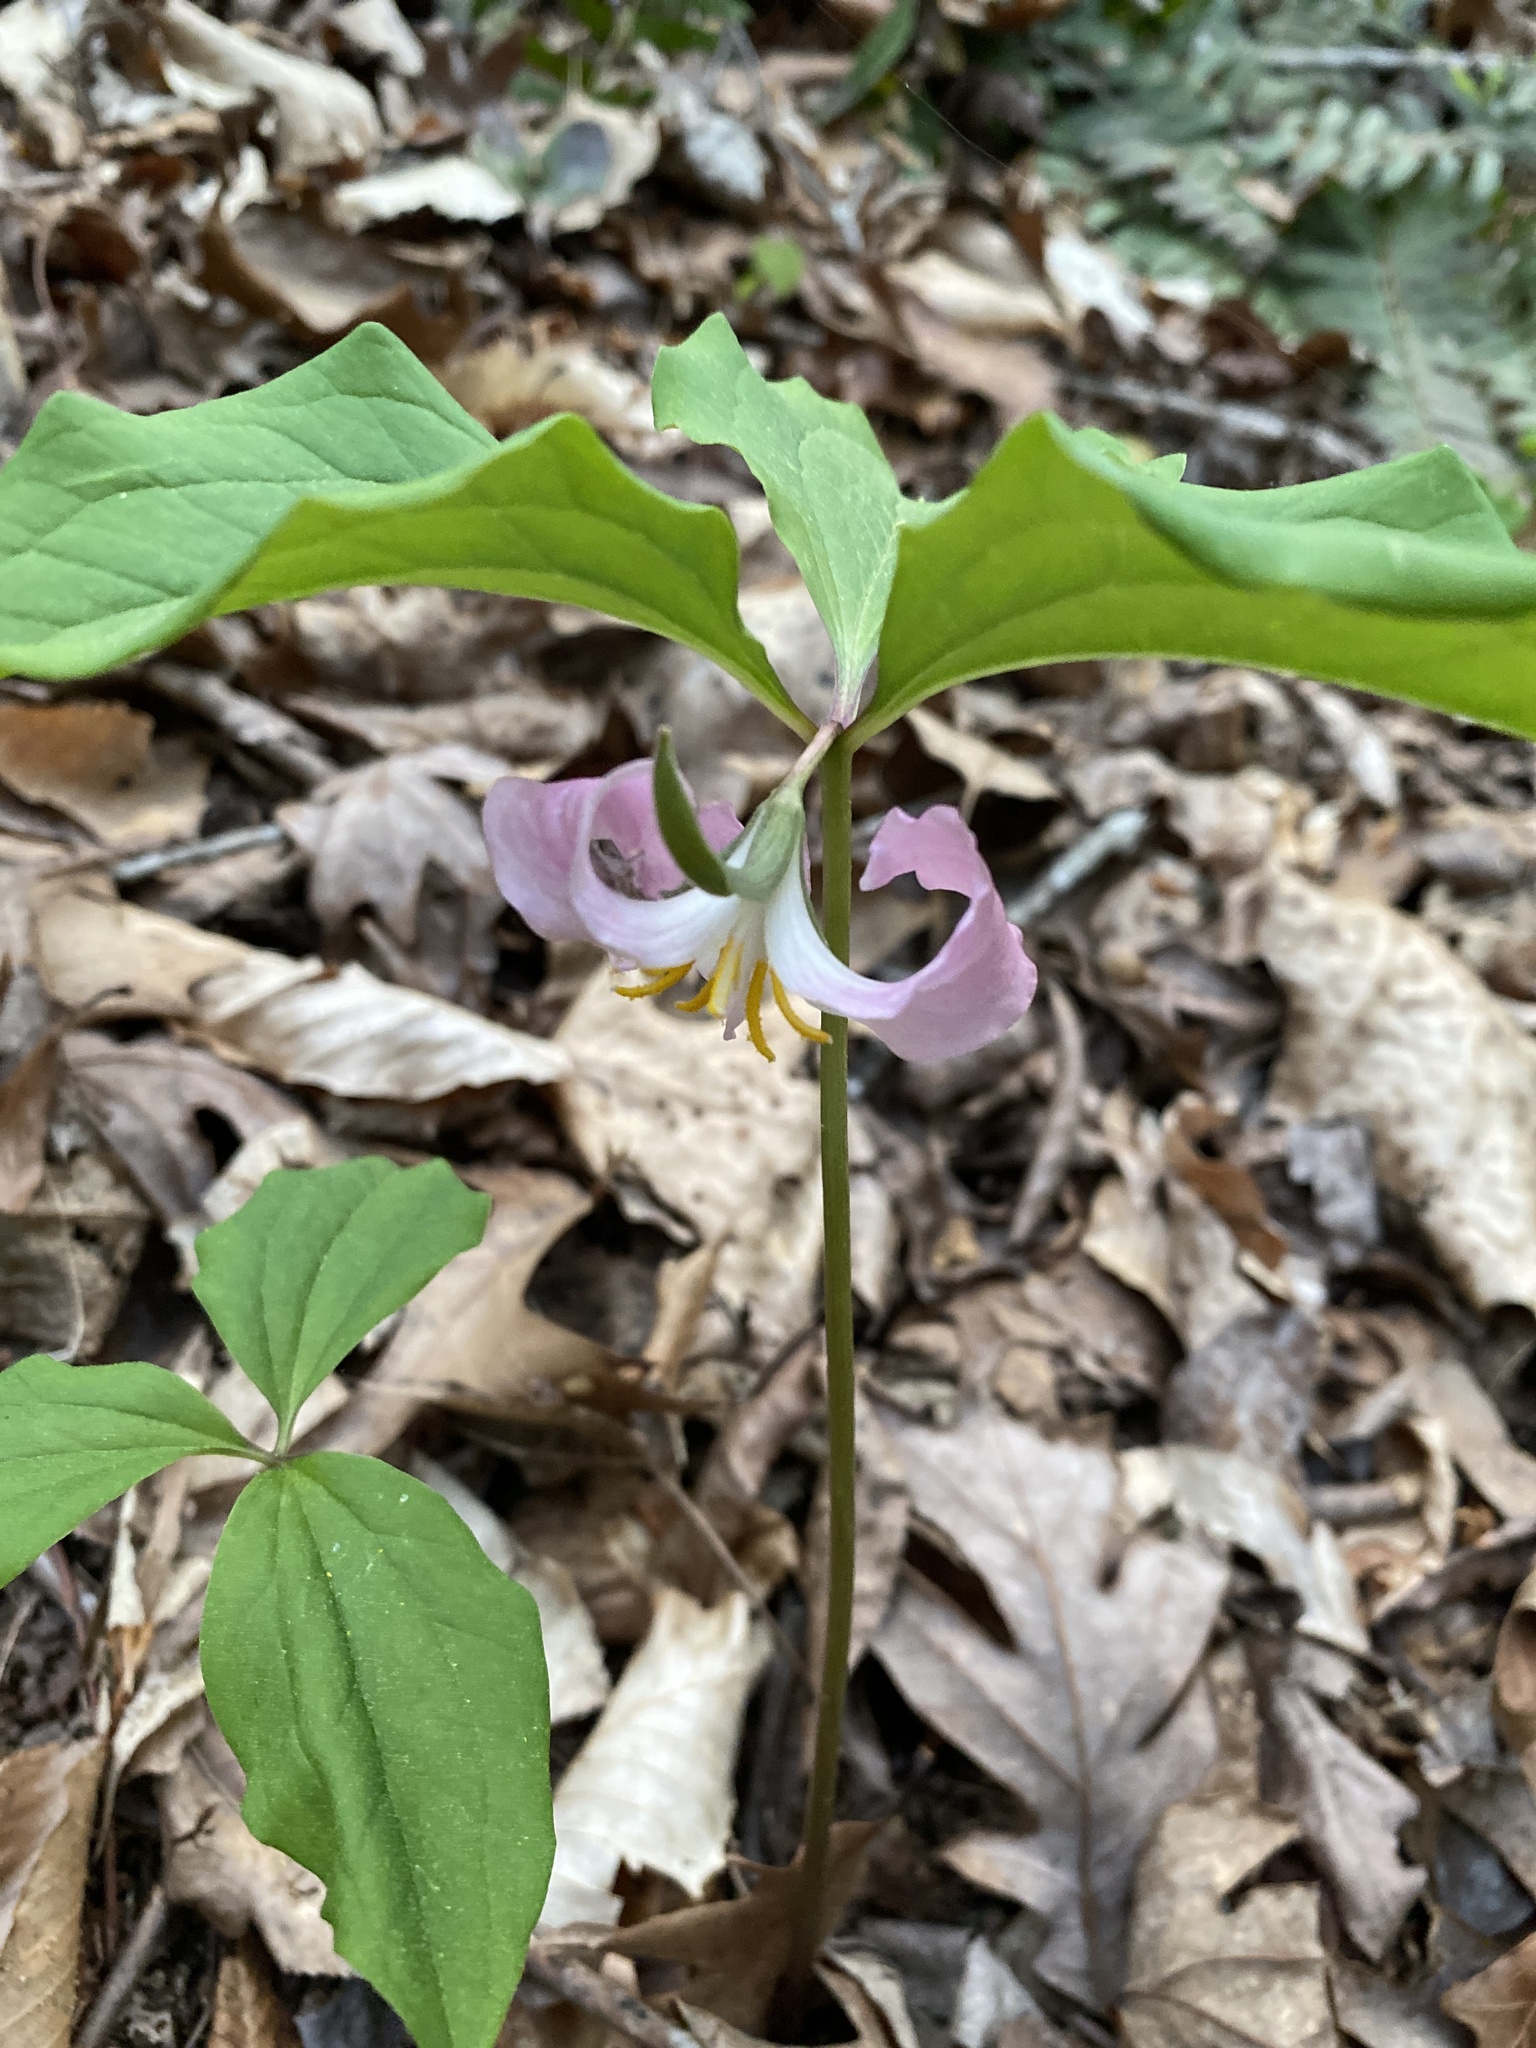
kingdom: Plantae
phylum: Tracheophyta
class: Liliopsida
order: Liliales
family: Melanthiaceae
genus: Trillium
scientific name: Trillium catesbaei
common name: Bashful trillium
